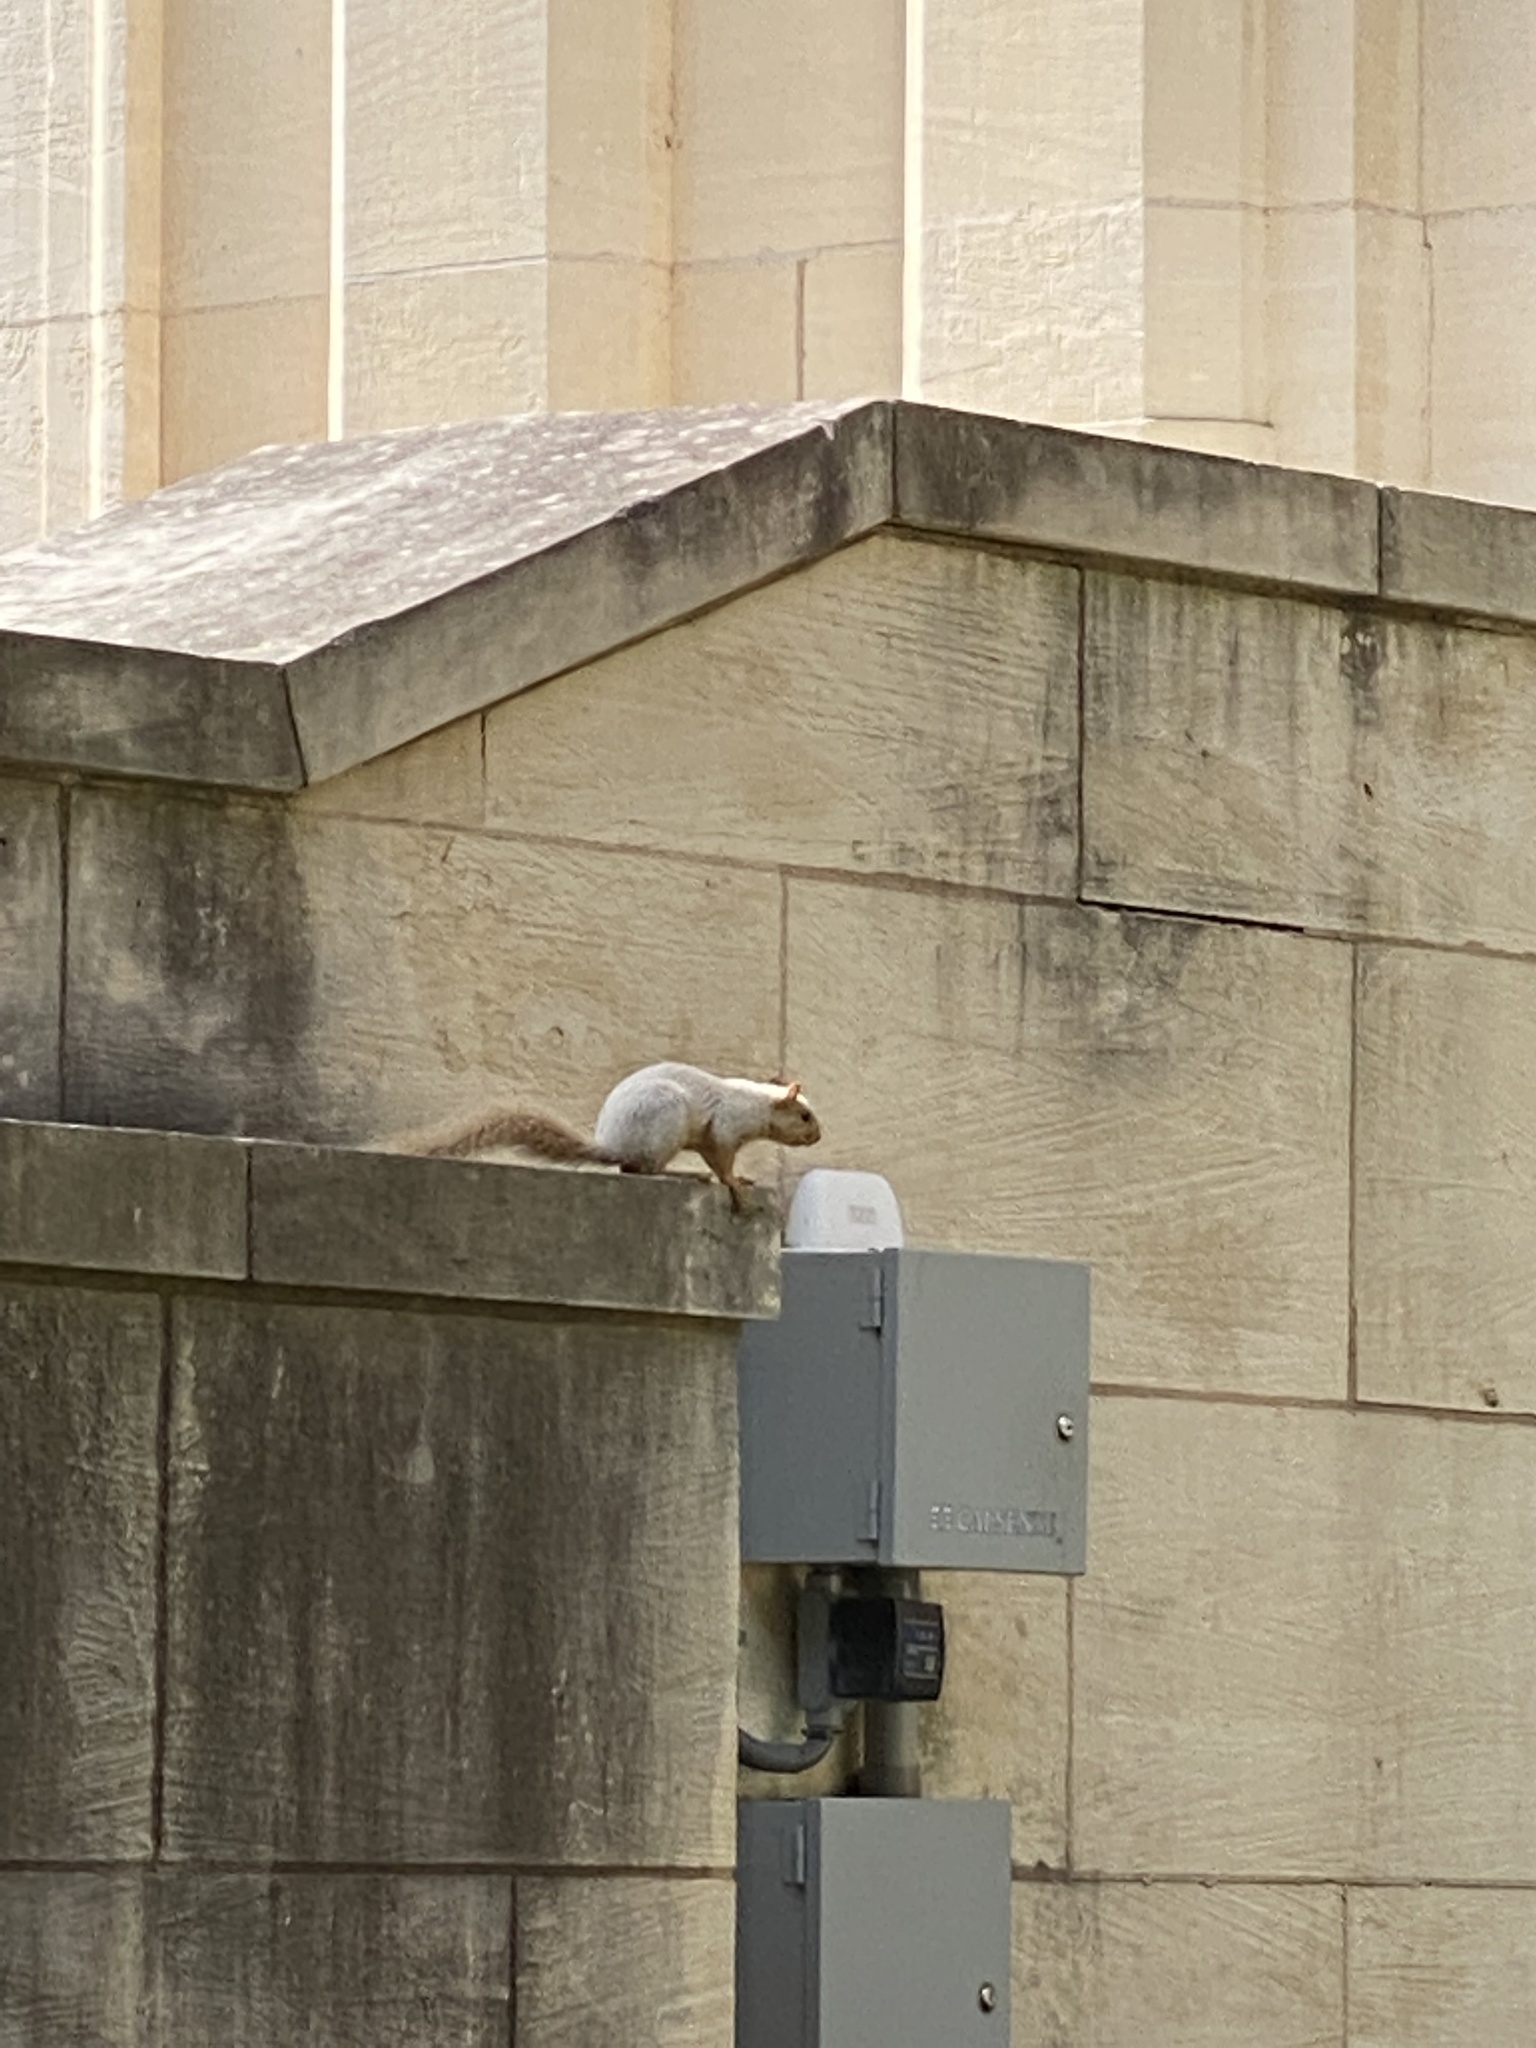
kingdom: Animalia
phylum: Chordata
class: Mammalia
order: Rodentia
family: Sciuridae
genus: Sciurus
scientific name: Sciurus niger
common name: Fox squirrel
